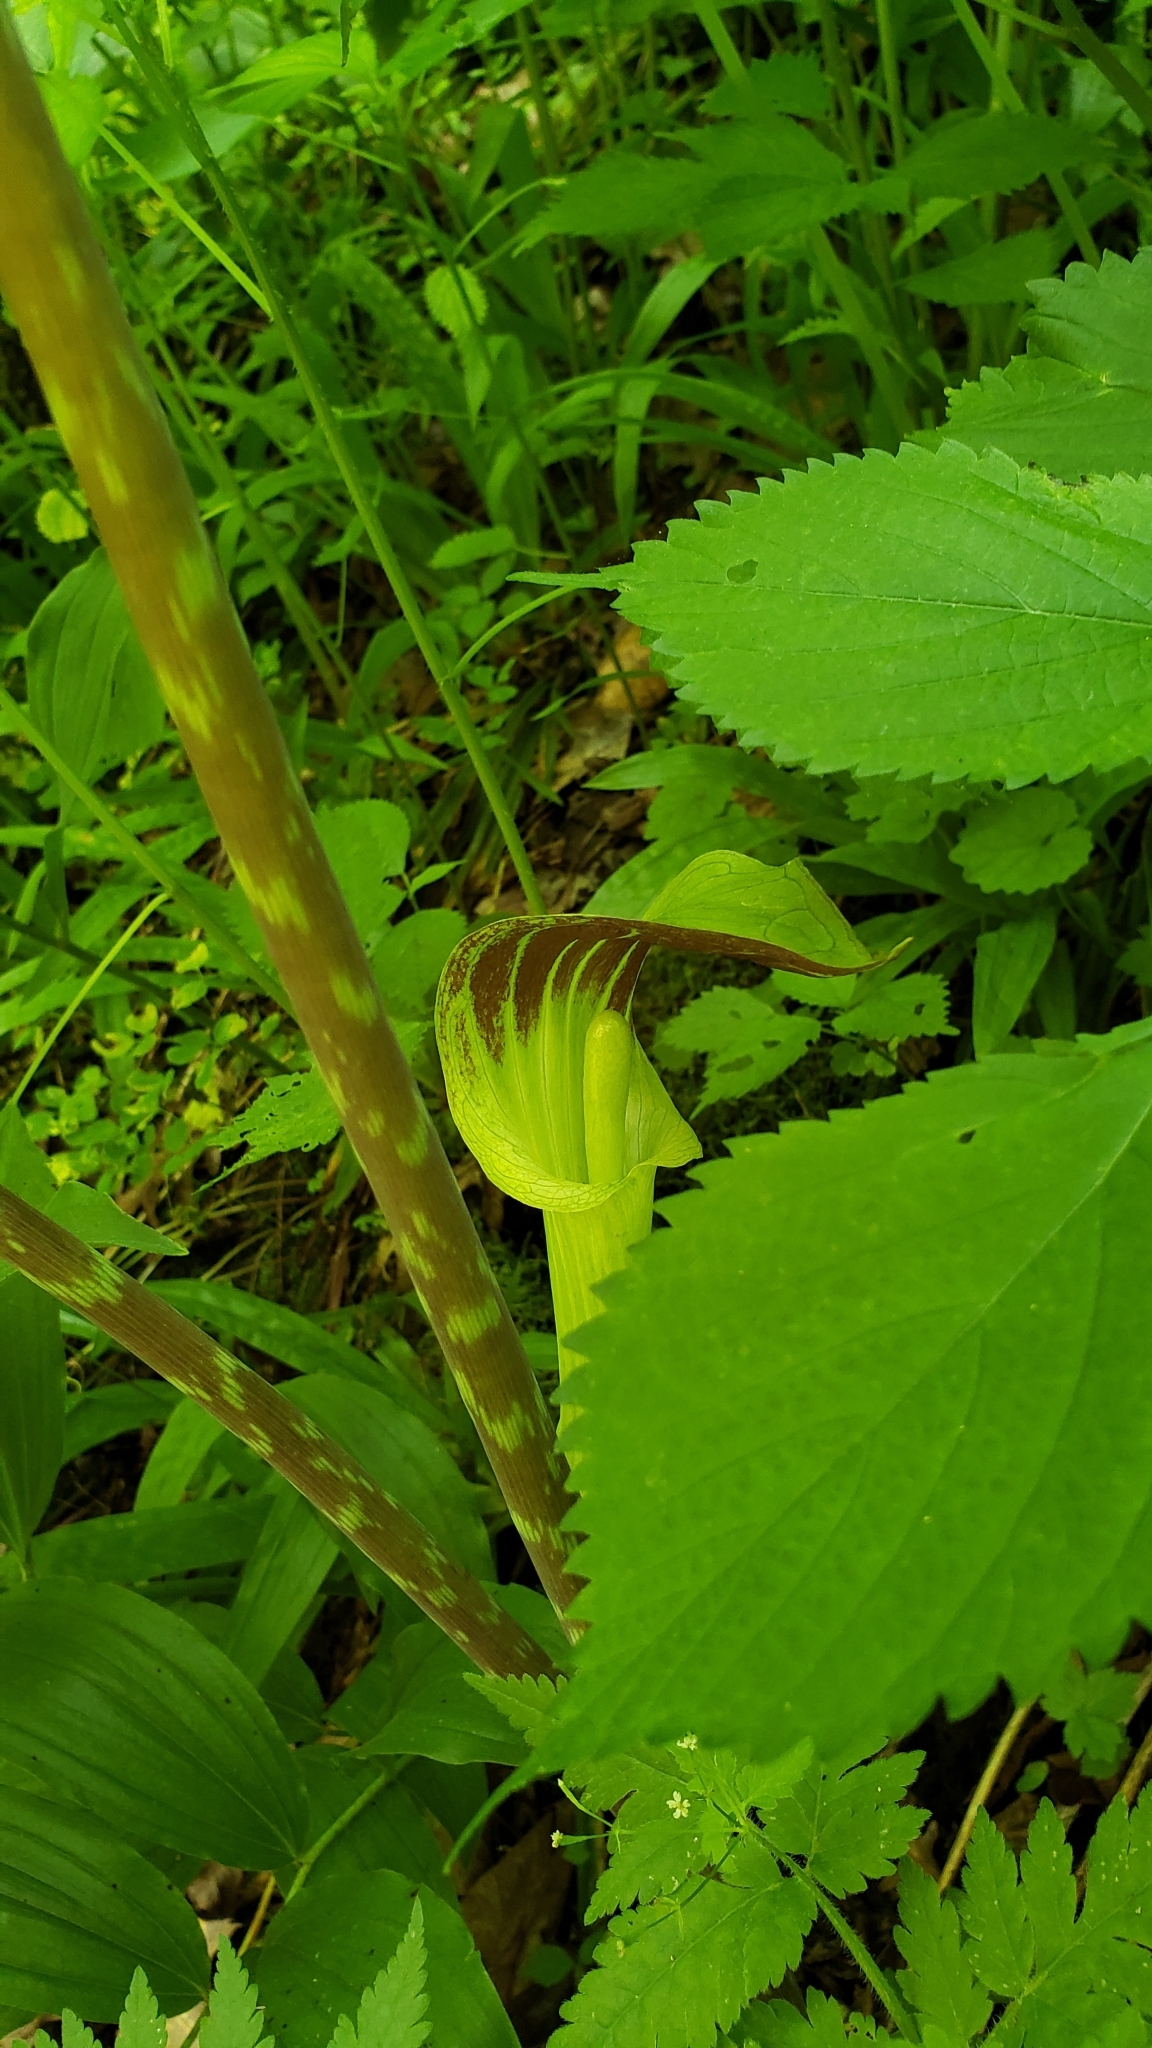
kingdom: Plantae
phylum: Tracheophyta
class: Liliopsida
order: Alismatales
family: Araceae
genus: Arisaema
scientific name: Arisaema triphyllum
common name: Jack-in-the-pulpit
